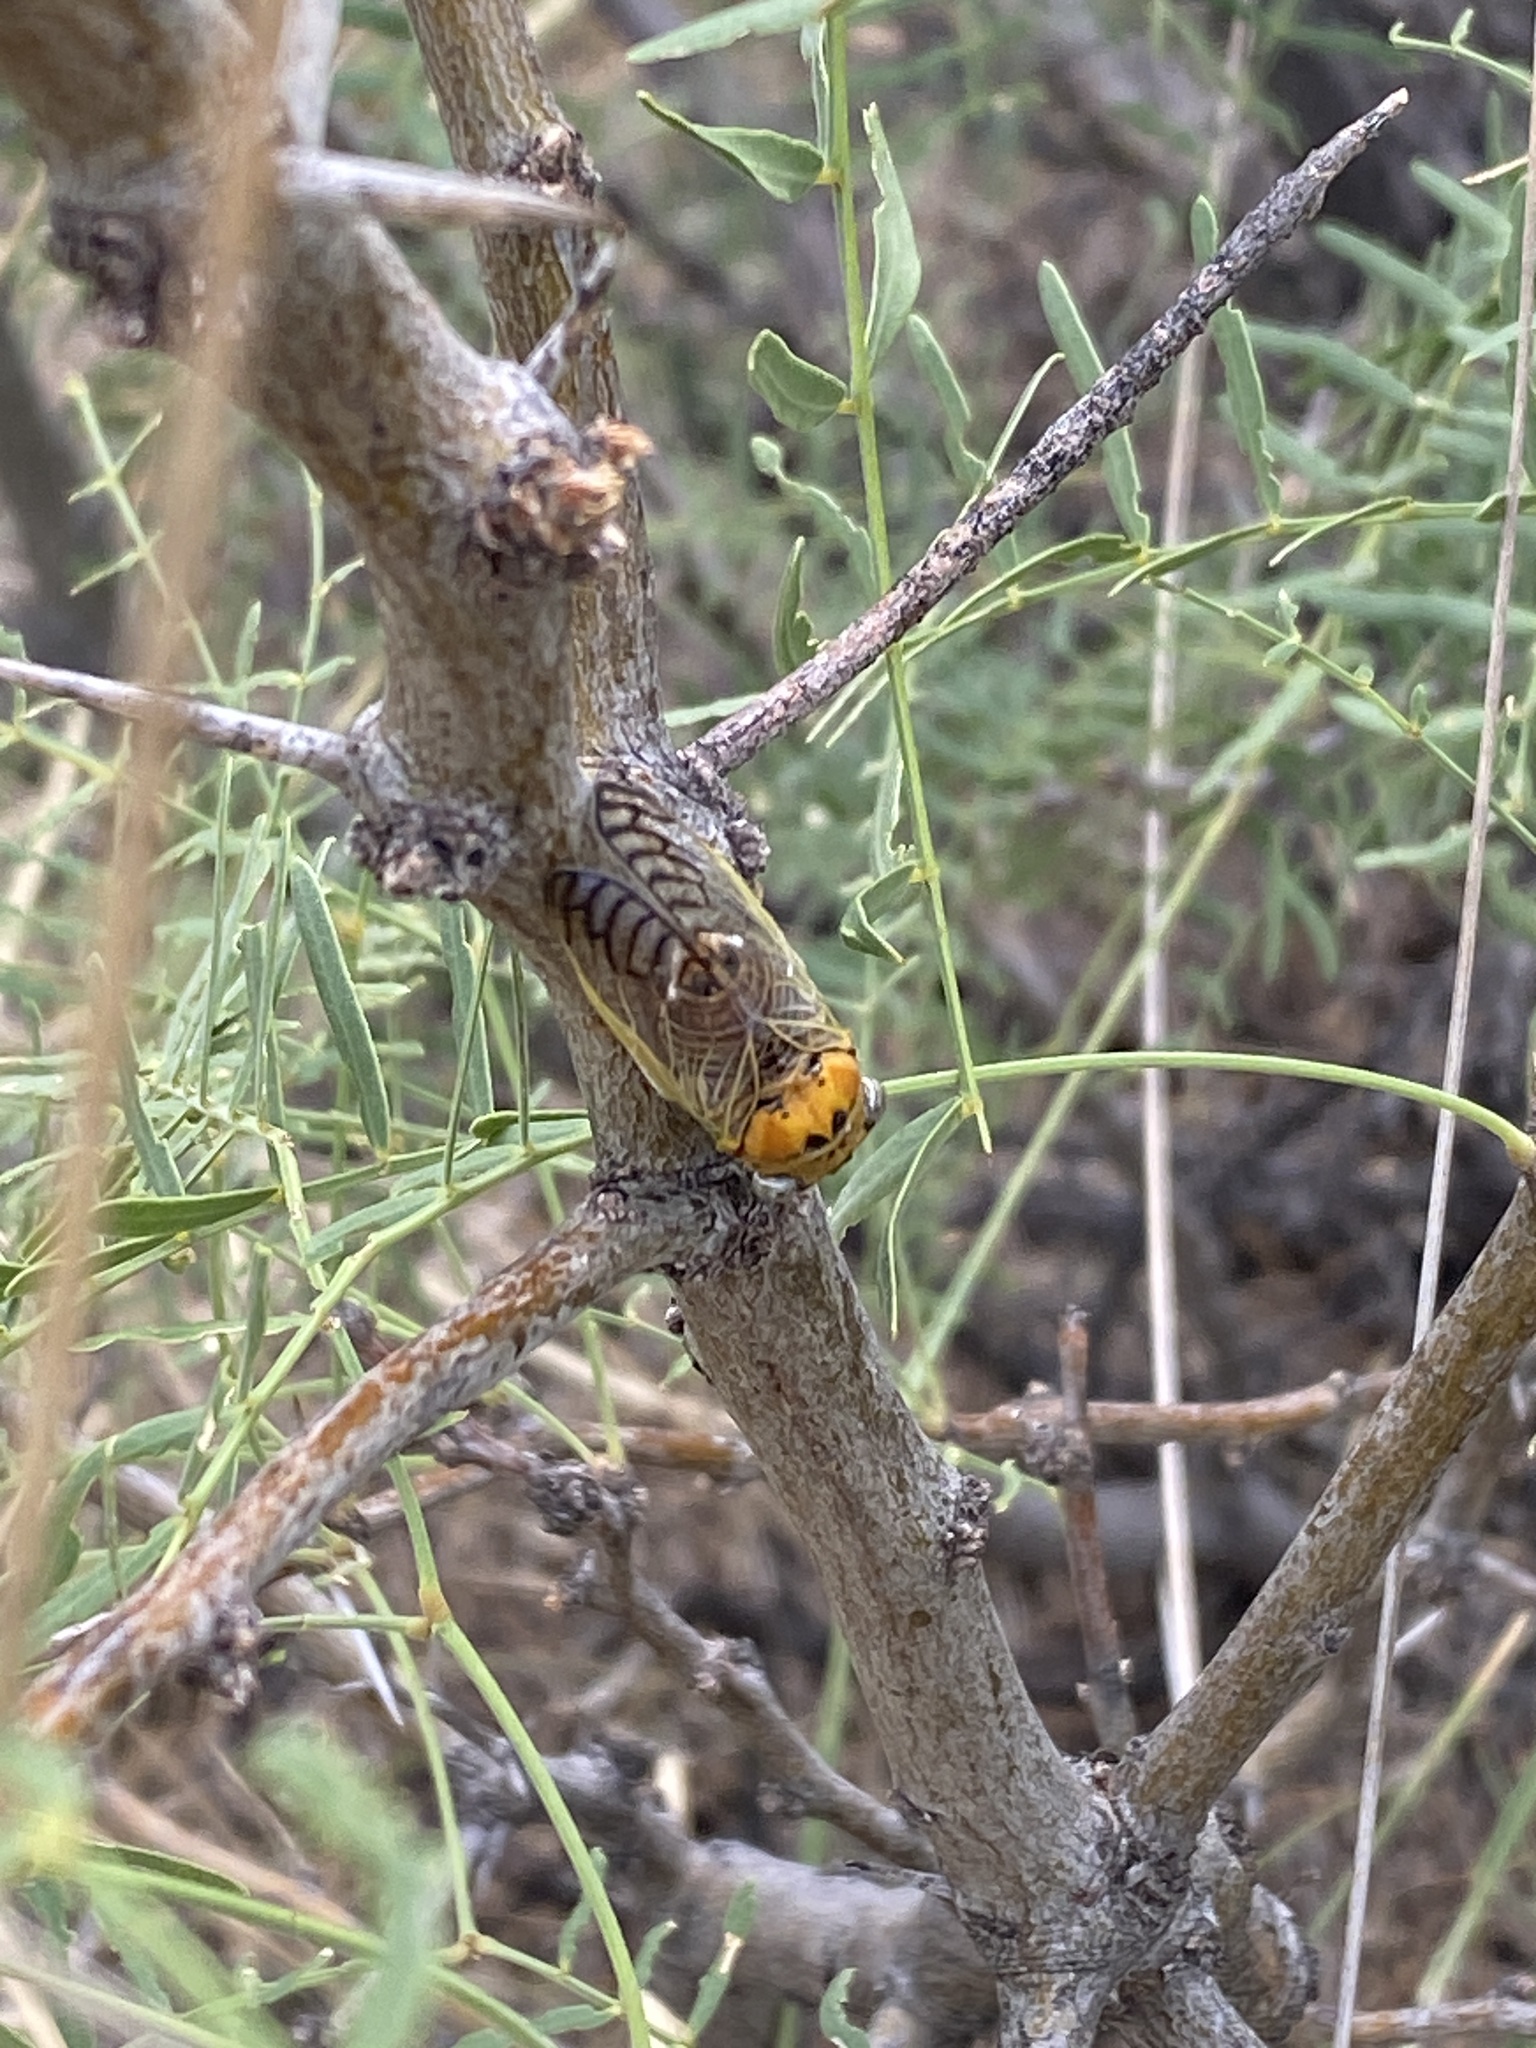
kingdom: Animalia
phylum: Arthropoda
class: Insecta
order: Hemiptera
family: Cicadidae
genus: Diceroprocta
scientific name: Diceroprocta aurantiaca
